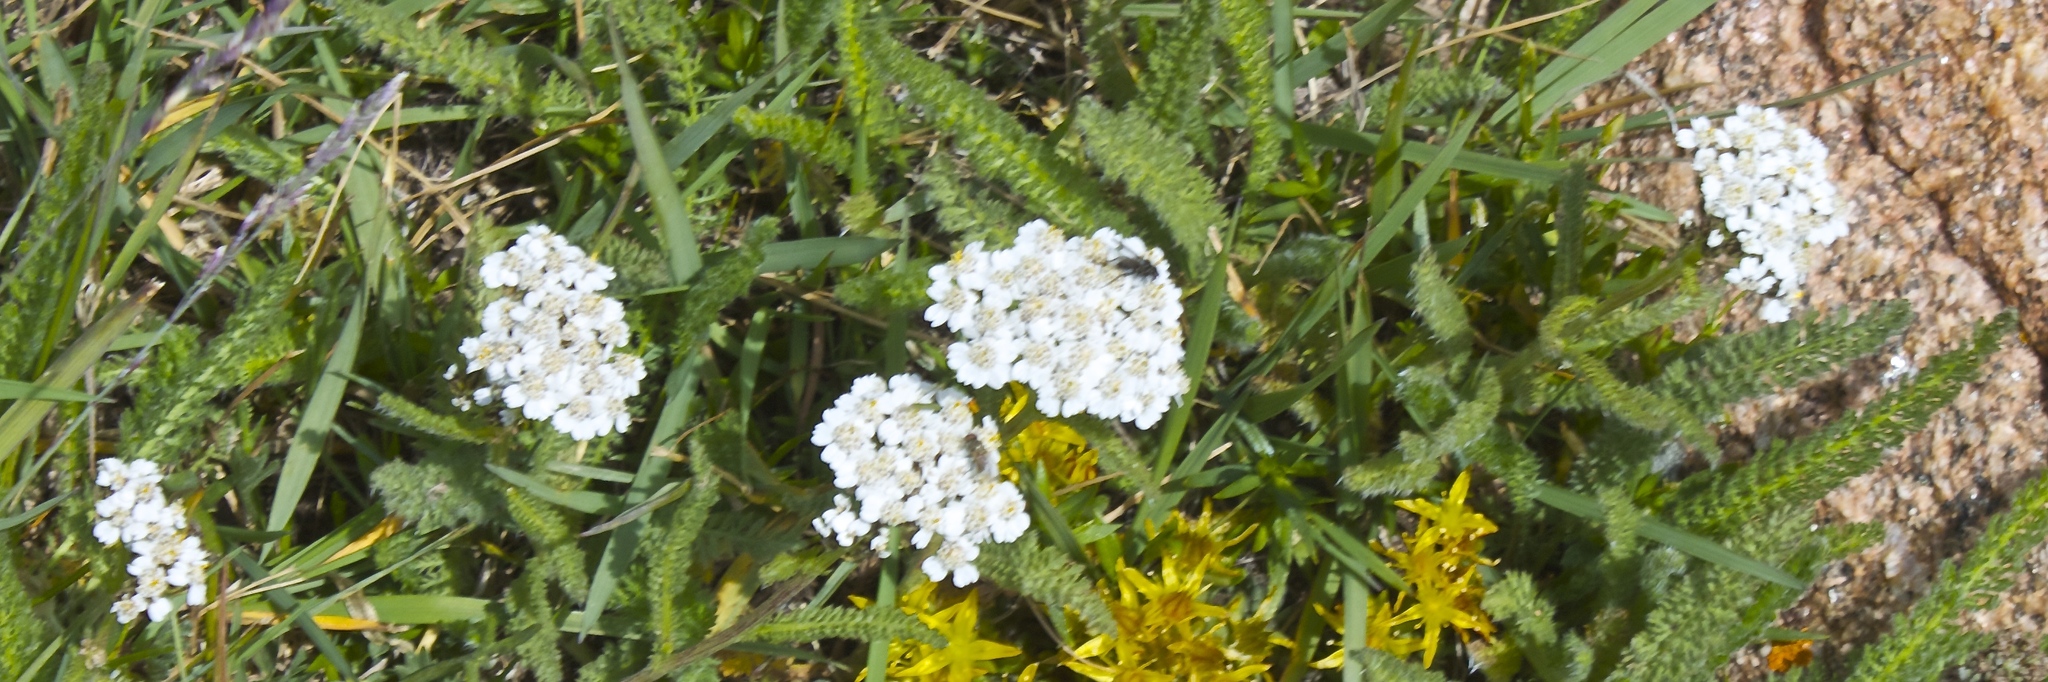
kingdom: Plantae
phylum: Tracheophyta
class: Magnoliopsida
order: Asterales
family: Asteraceae
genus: Achillea
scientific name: Achillea millefolium
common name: Yarrow
